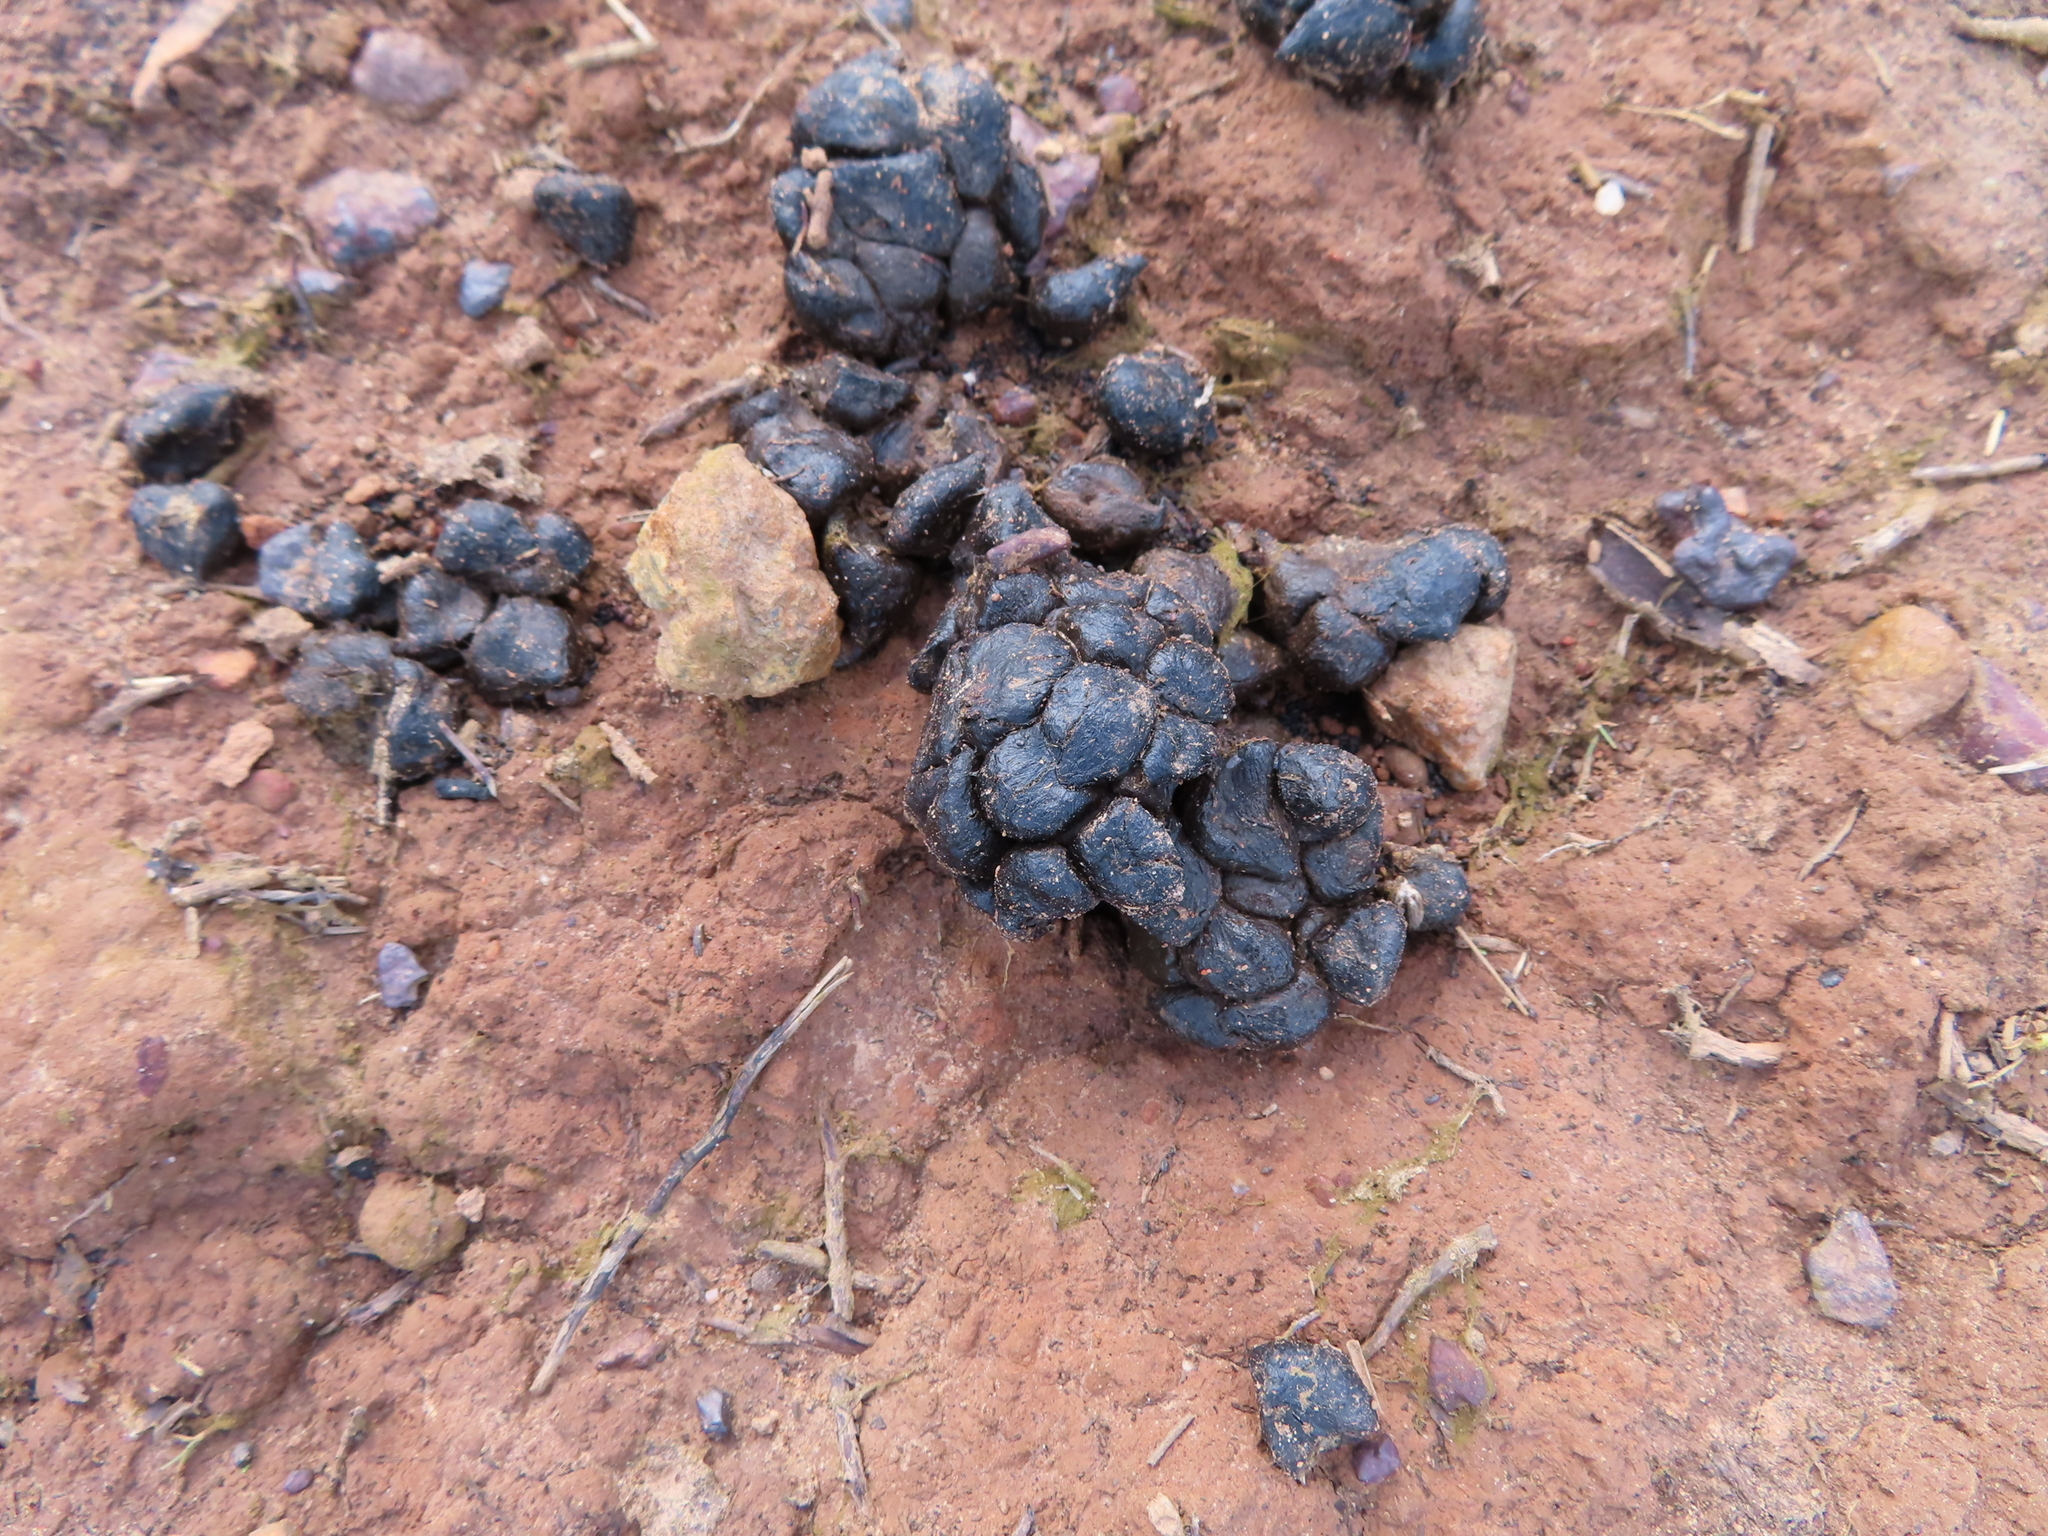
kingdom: Animalia
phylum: Chordata
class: Mammalia
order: Artiodactyla
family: Bovidae
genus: Sylvicapra
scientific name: Sylvicapra grimmia
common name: Bush duiker
